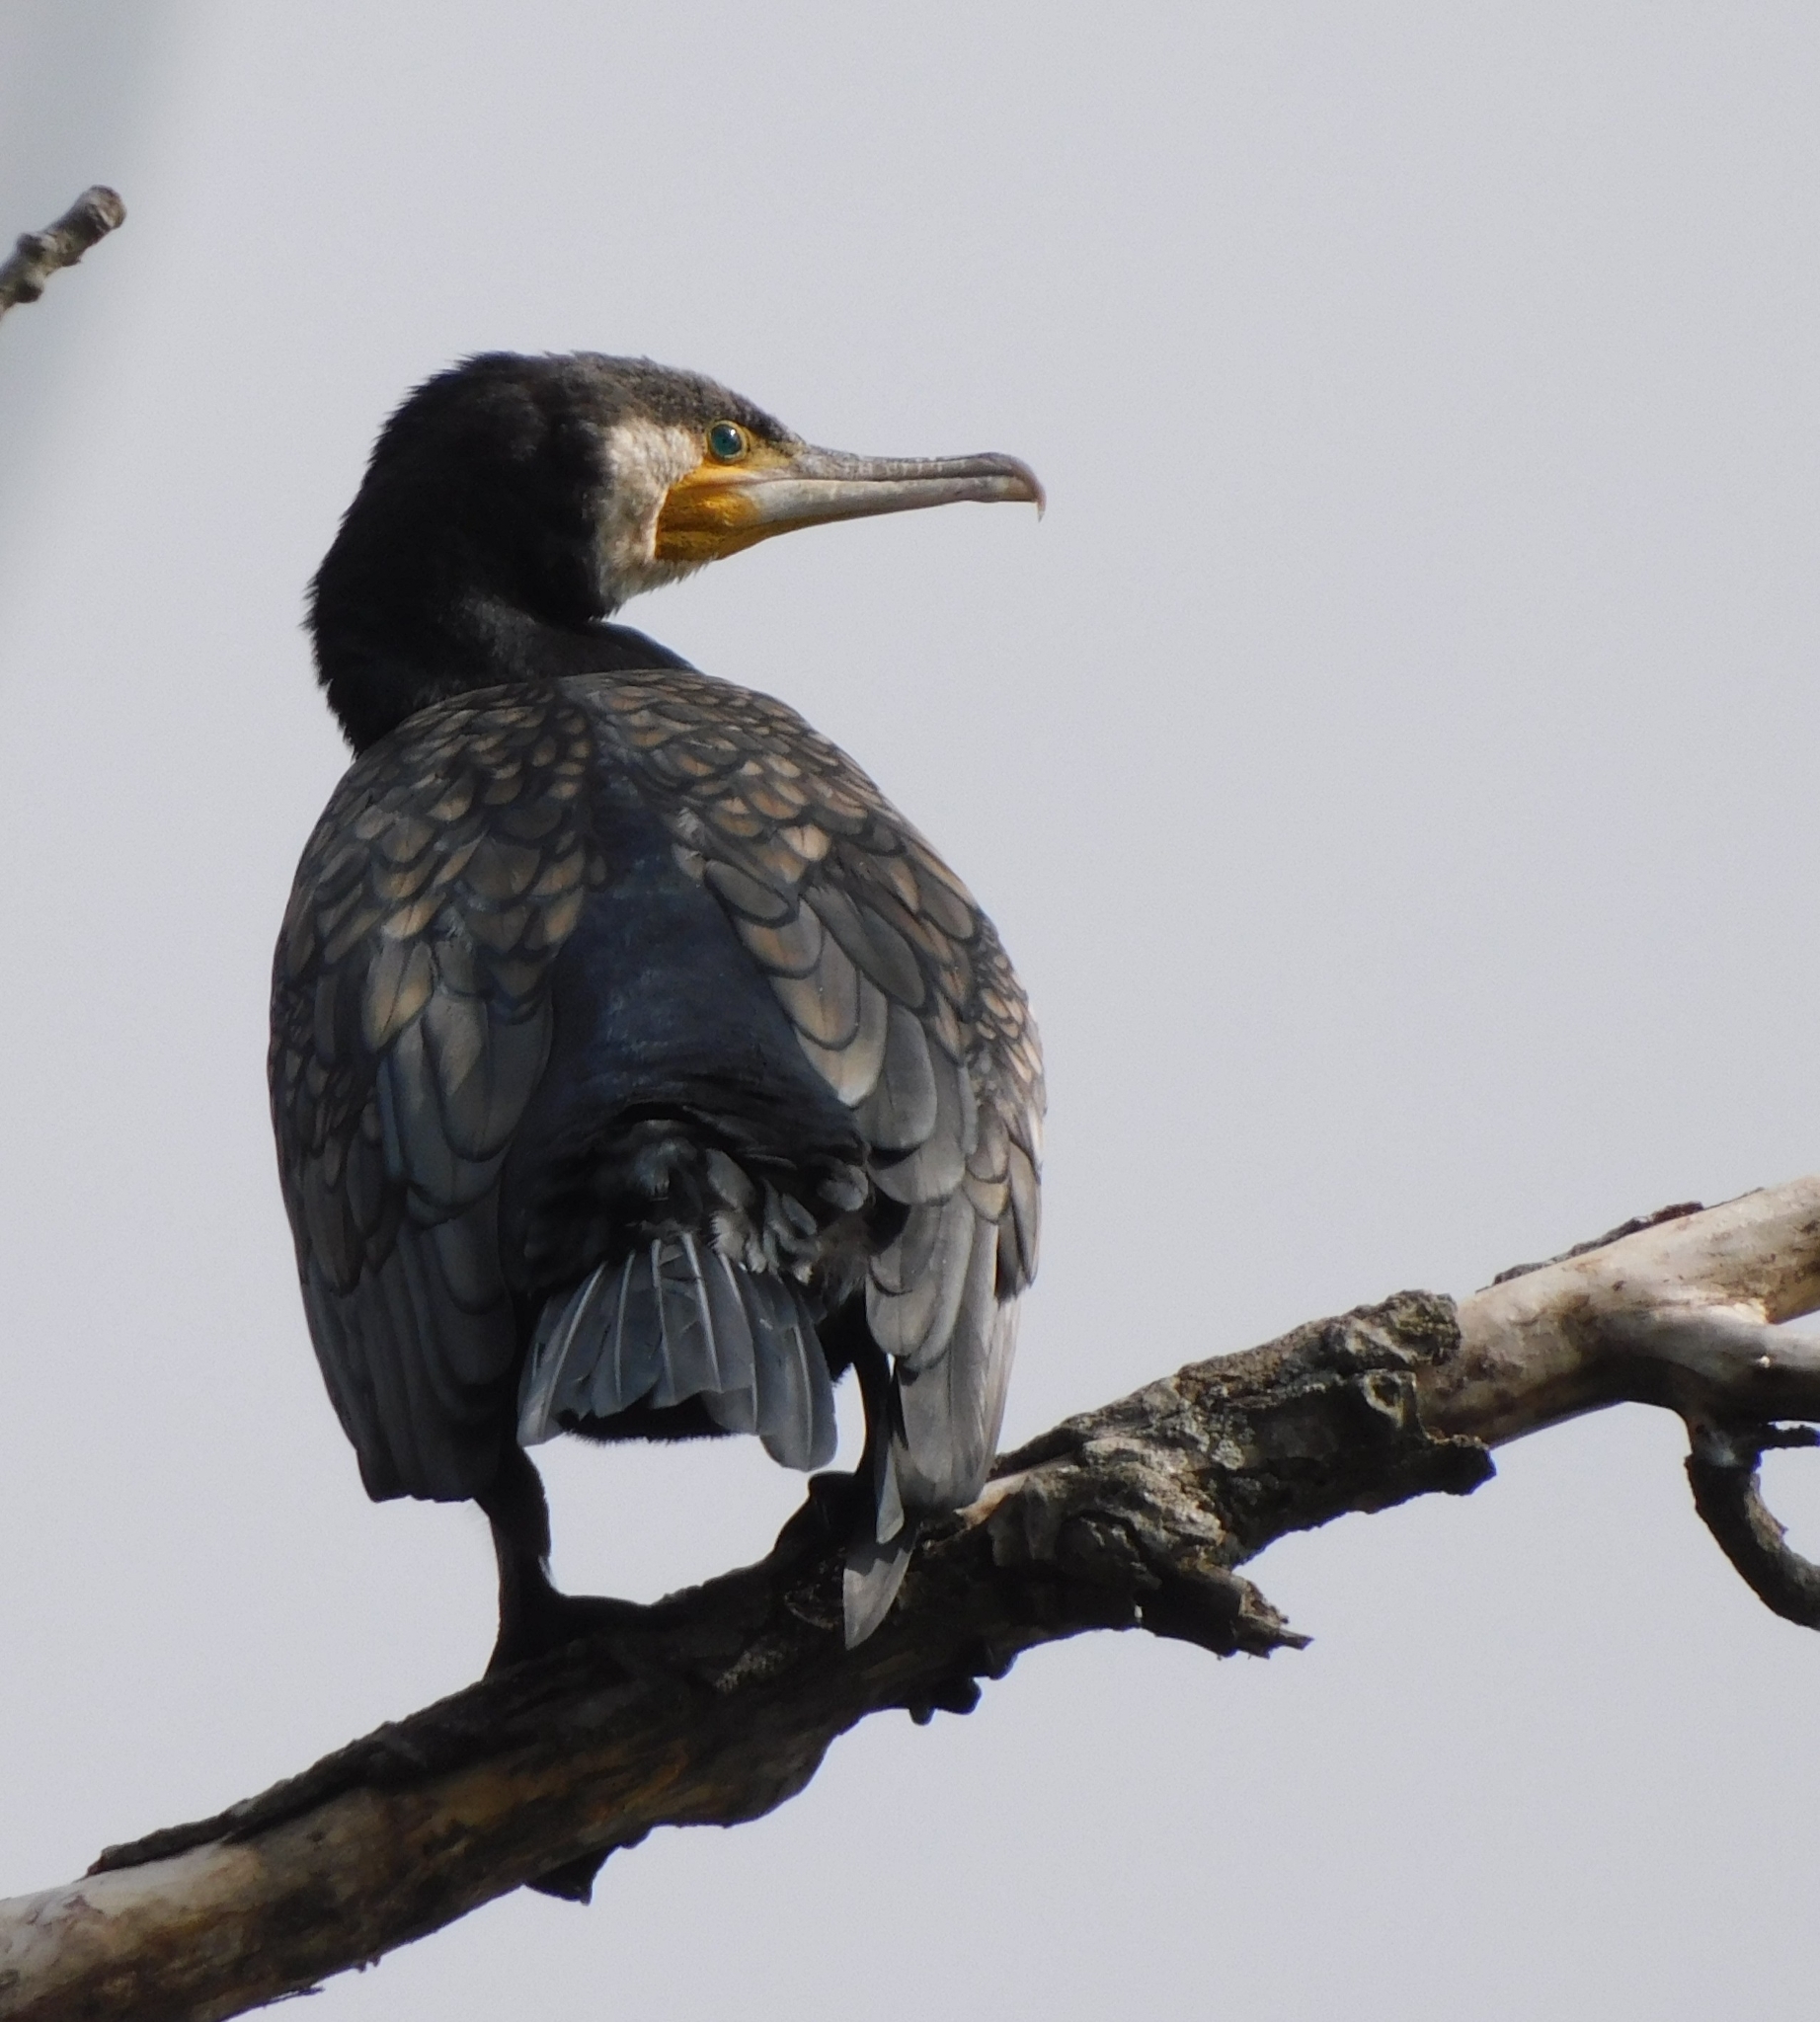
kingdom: Animalia
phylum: Chordata
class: Aves
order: Suliformes
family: Phalacrocoracidae
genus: Phalacrocorax
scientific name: Phalacrocorax carbo
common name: Great cormorant
